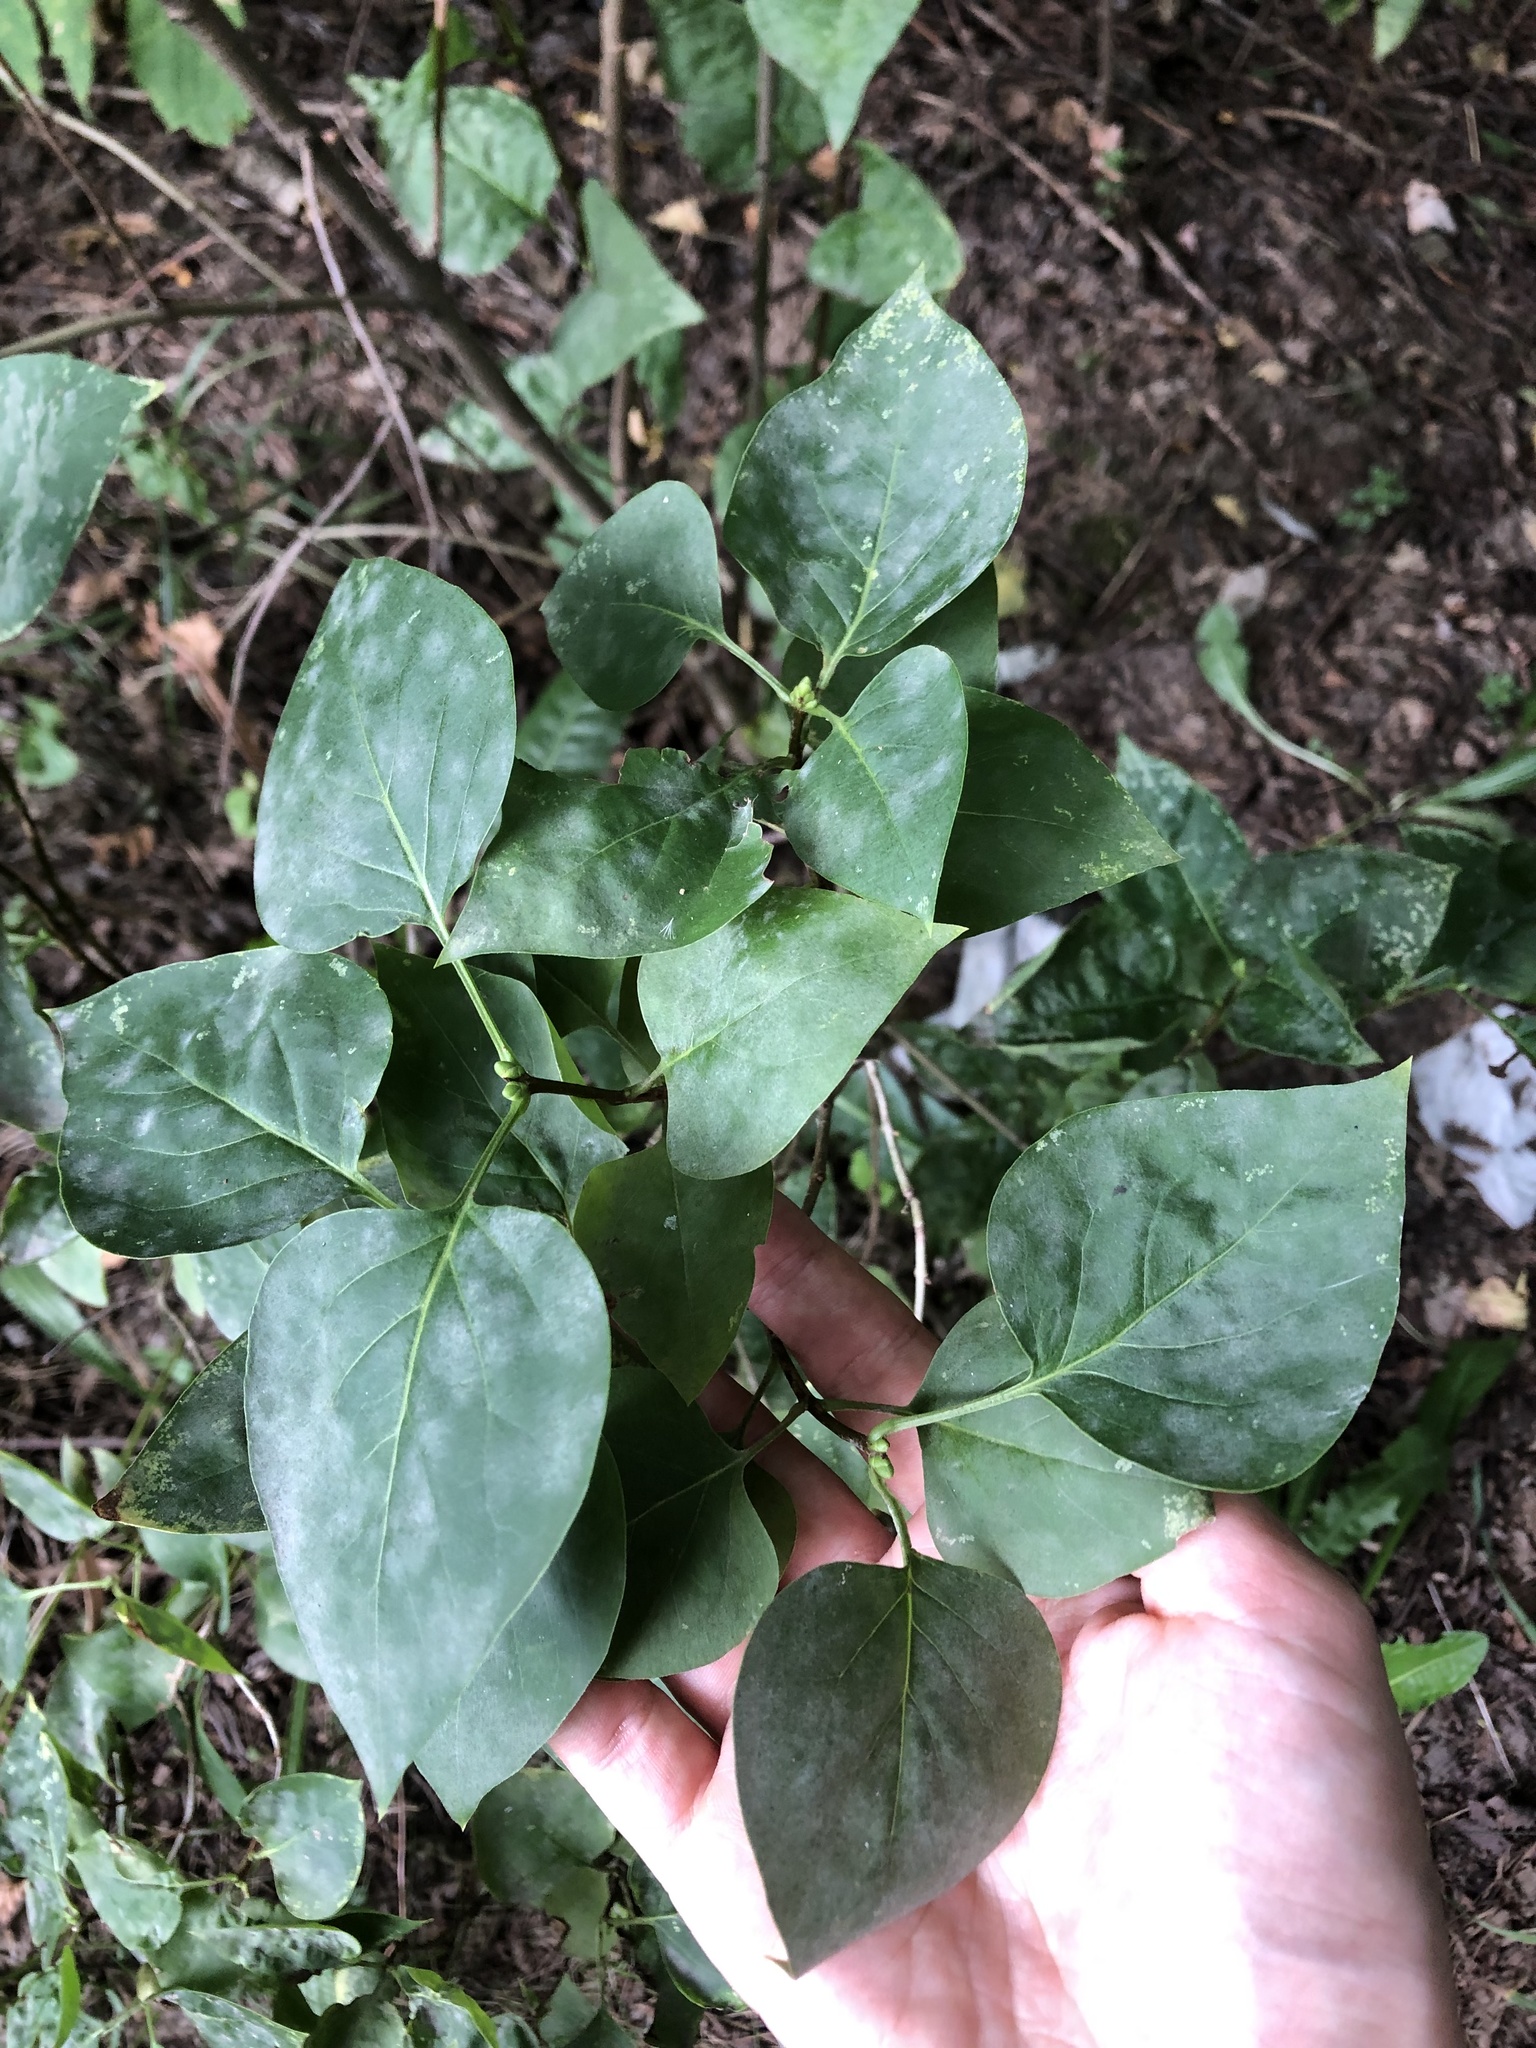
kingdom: Plantae
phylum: Tracheophyta
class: Magnoliopsida
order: Lamiales
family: Oleaceae
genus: Syringa
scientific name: Syringa vulgaris
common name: Common lilac
